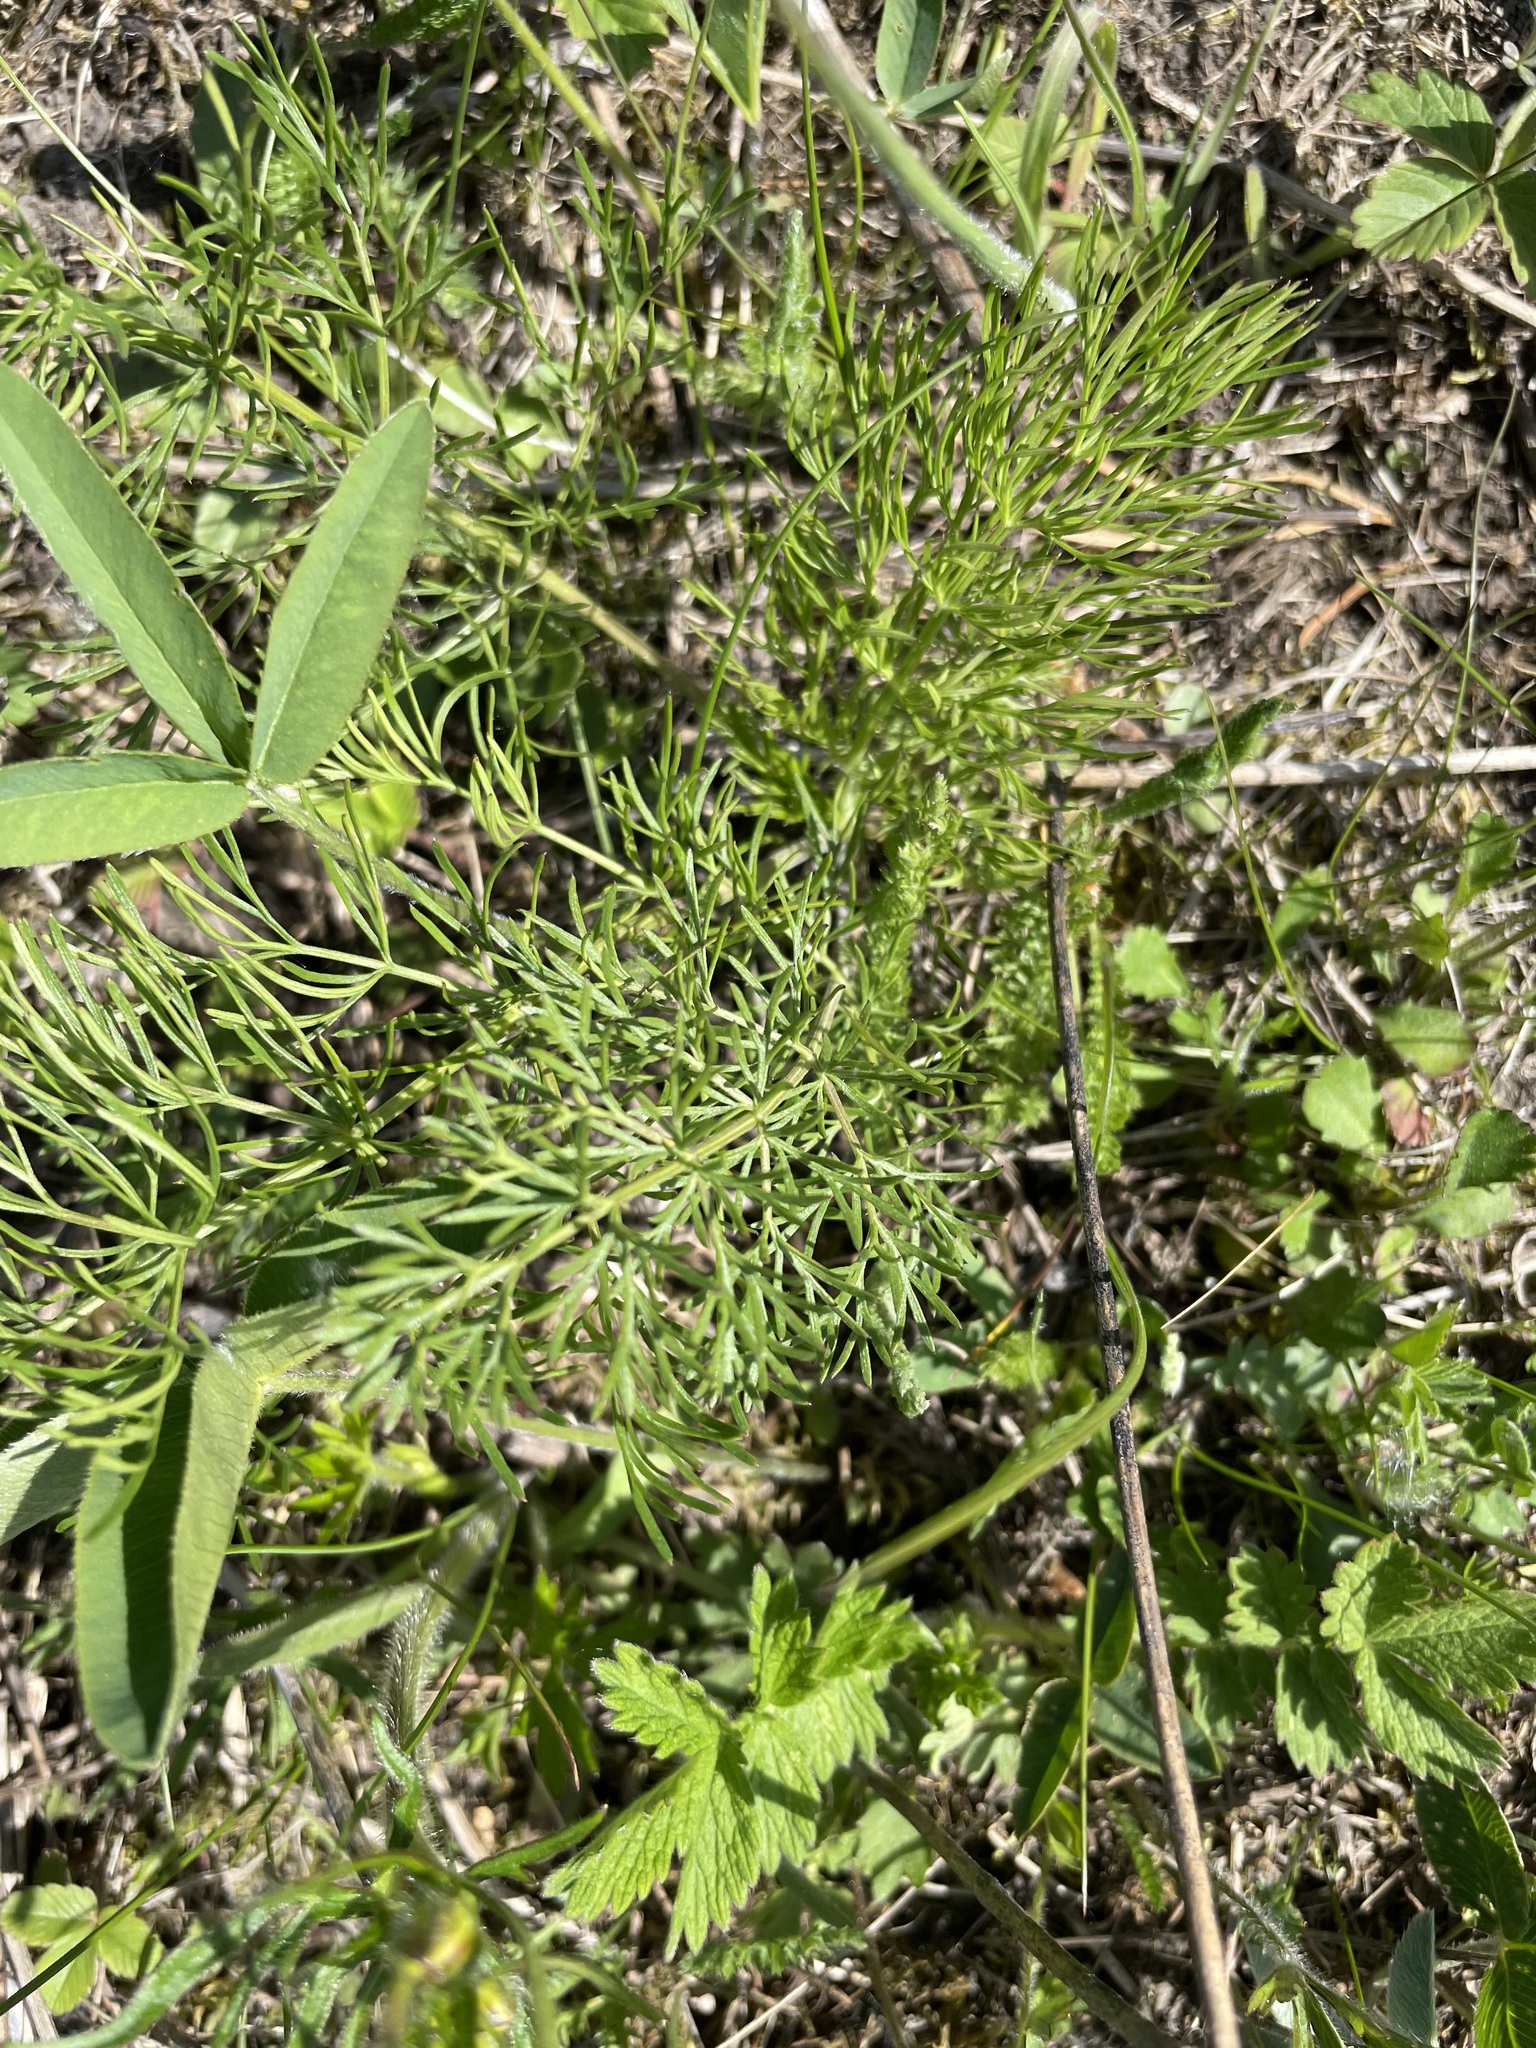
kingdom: Plantae
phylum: Tracheophyta
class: Magnoliopsida
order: Apiales
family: Apiaceae
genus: Seseli
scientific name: Seseli annuum
